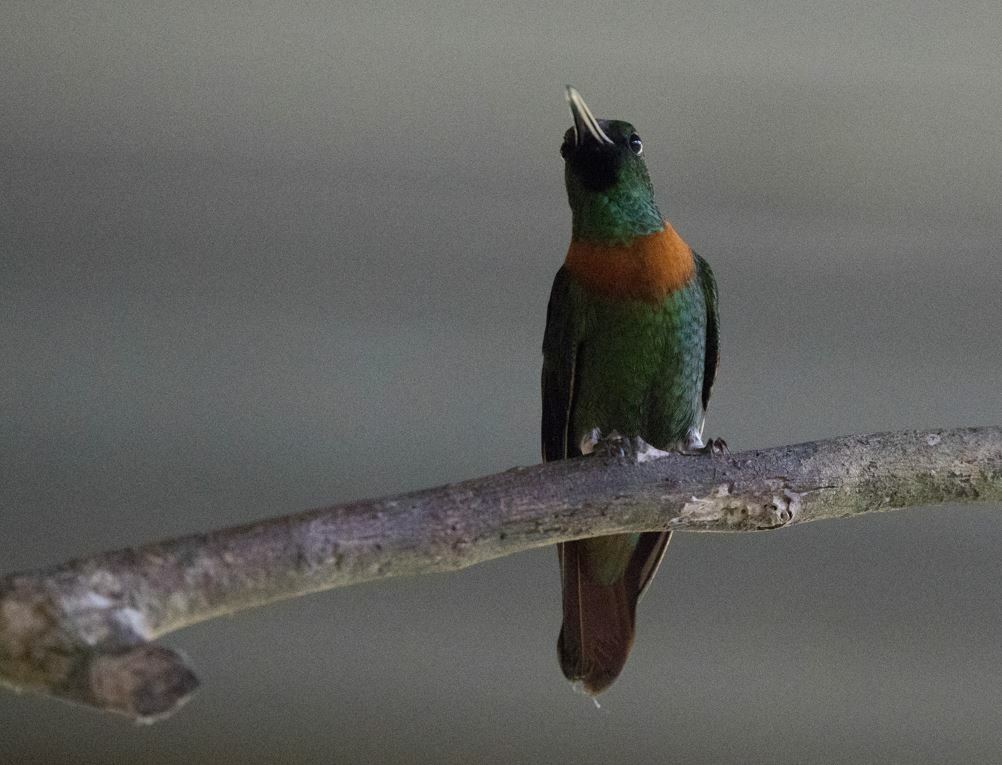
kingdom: Animalia
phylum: Chordata
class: Aves
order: Apodiformes
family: Trochilidae
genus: Heliodoxa
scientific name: Heliodoxa aurescens
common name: Gould's jewelfront
